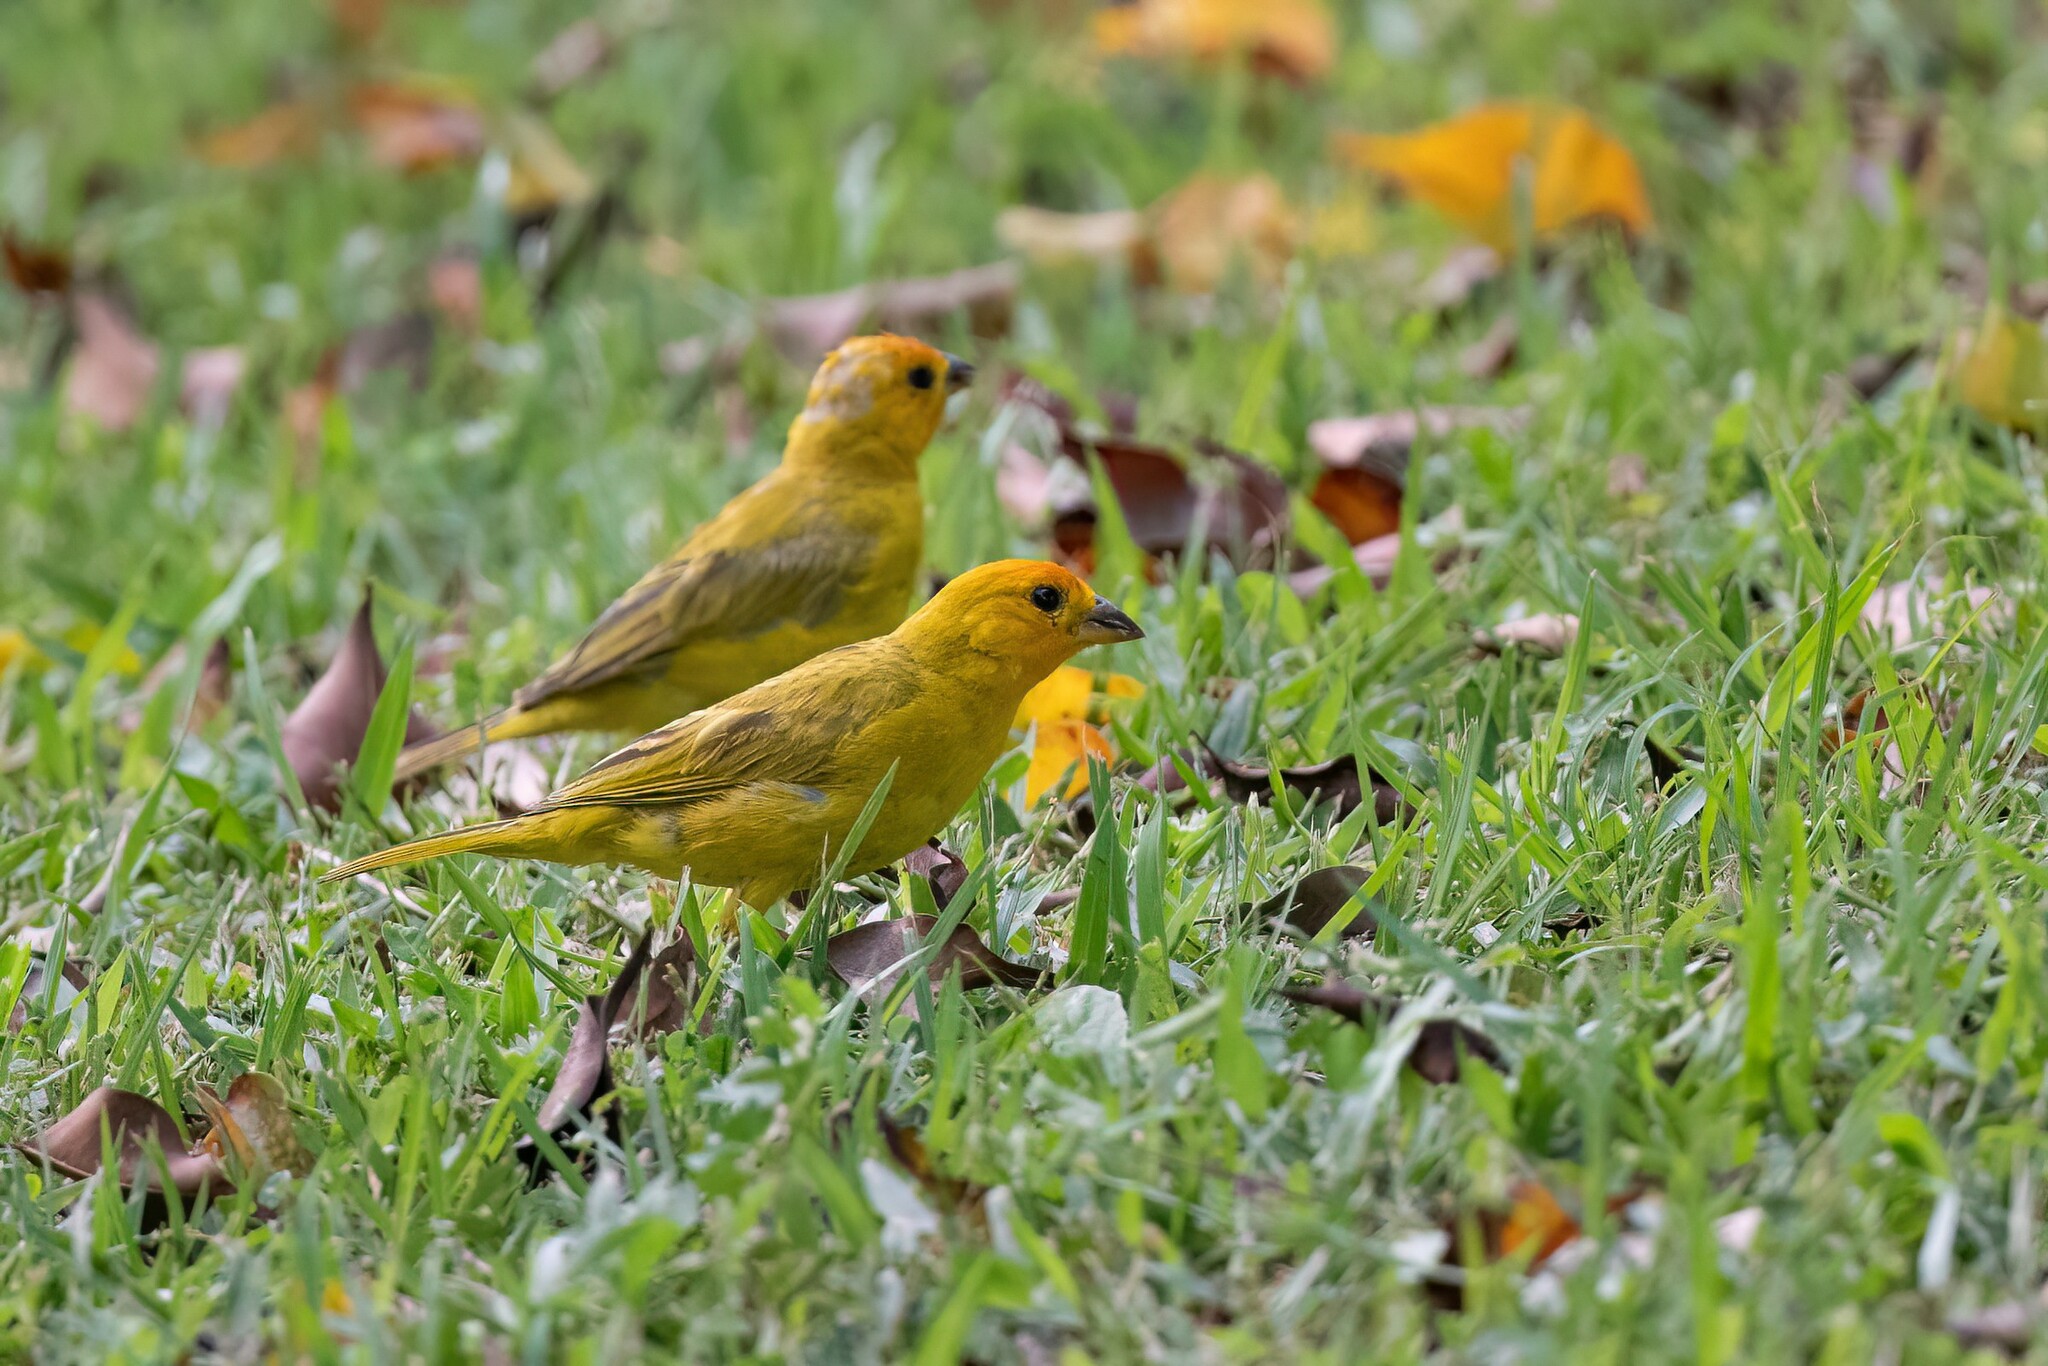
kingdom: Animalia
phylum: Chordata
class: Aves
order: Passeriformes
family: Thraupidae
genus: Sicalis
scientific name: Sicalis flaveola
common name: Saffron finch
